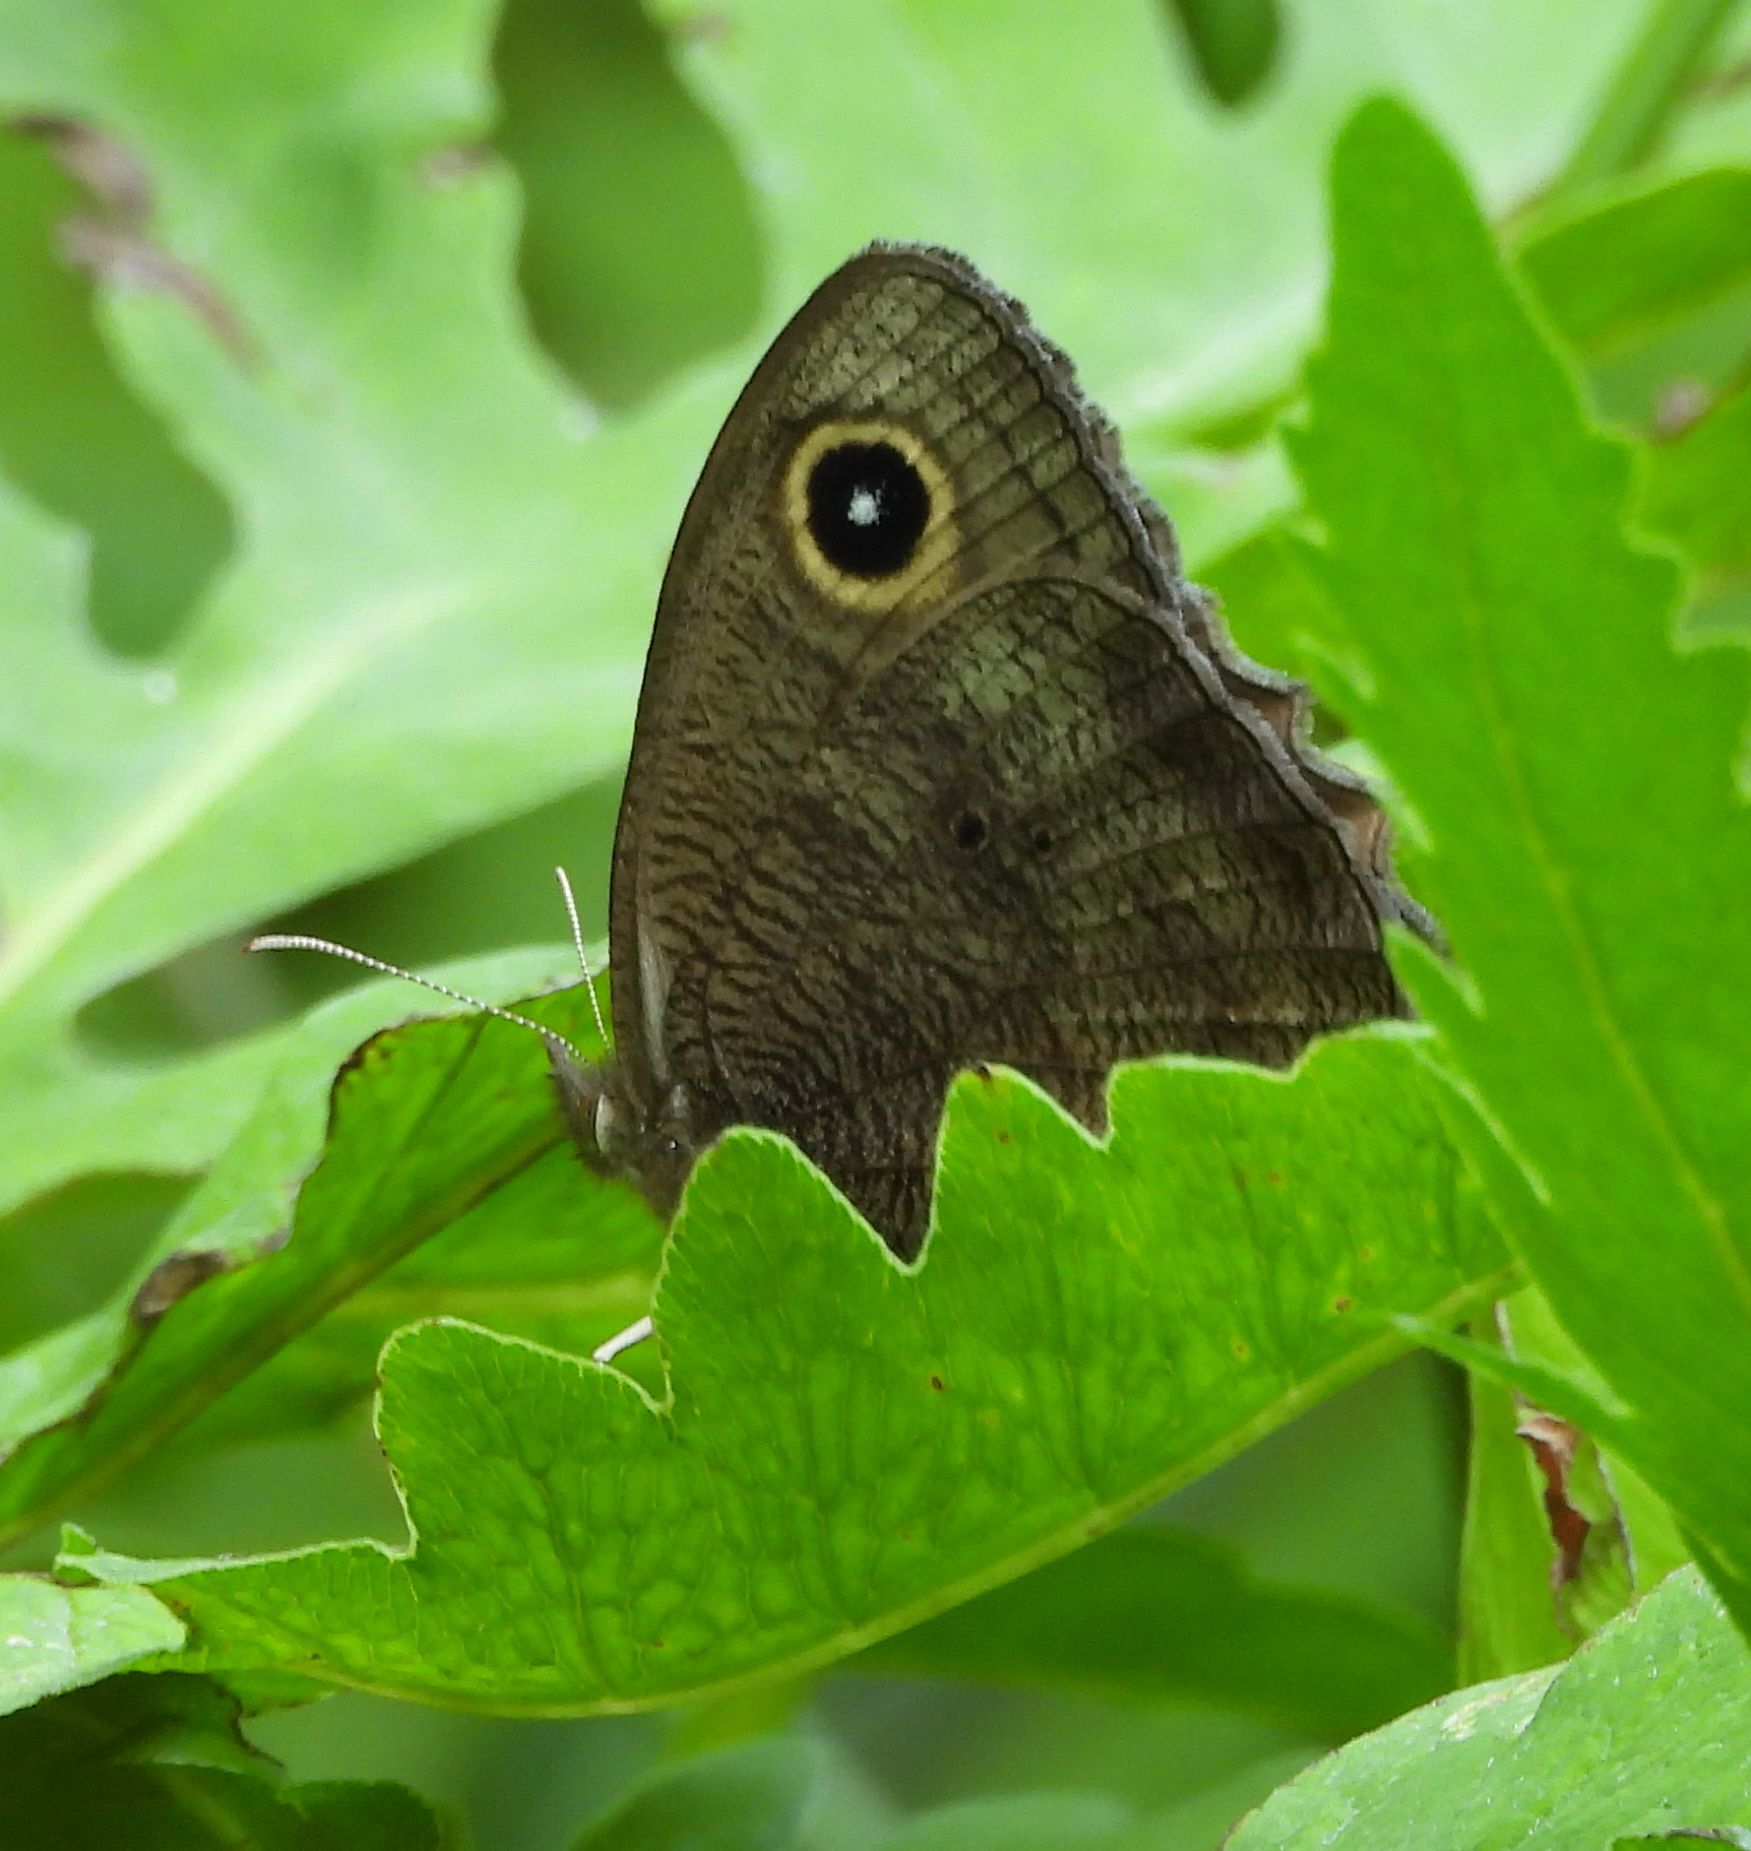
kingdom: Animalia
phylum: Arthropoda
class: Insecta
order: Lepidoptera
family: Nymphalidae
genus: Cercyonis
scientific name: Cercyonis pegala
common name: Common wood-nymph
